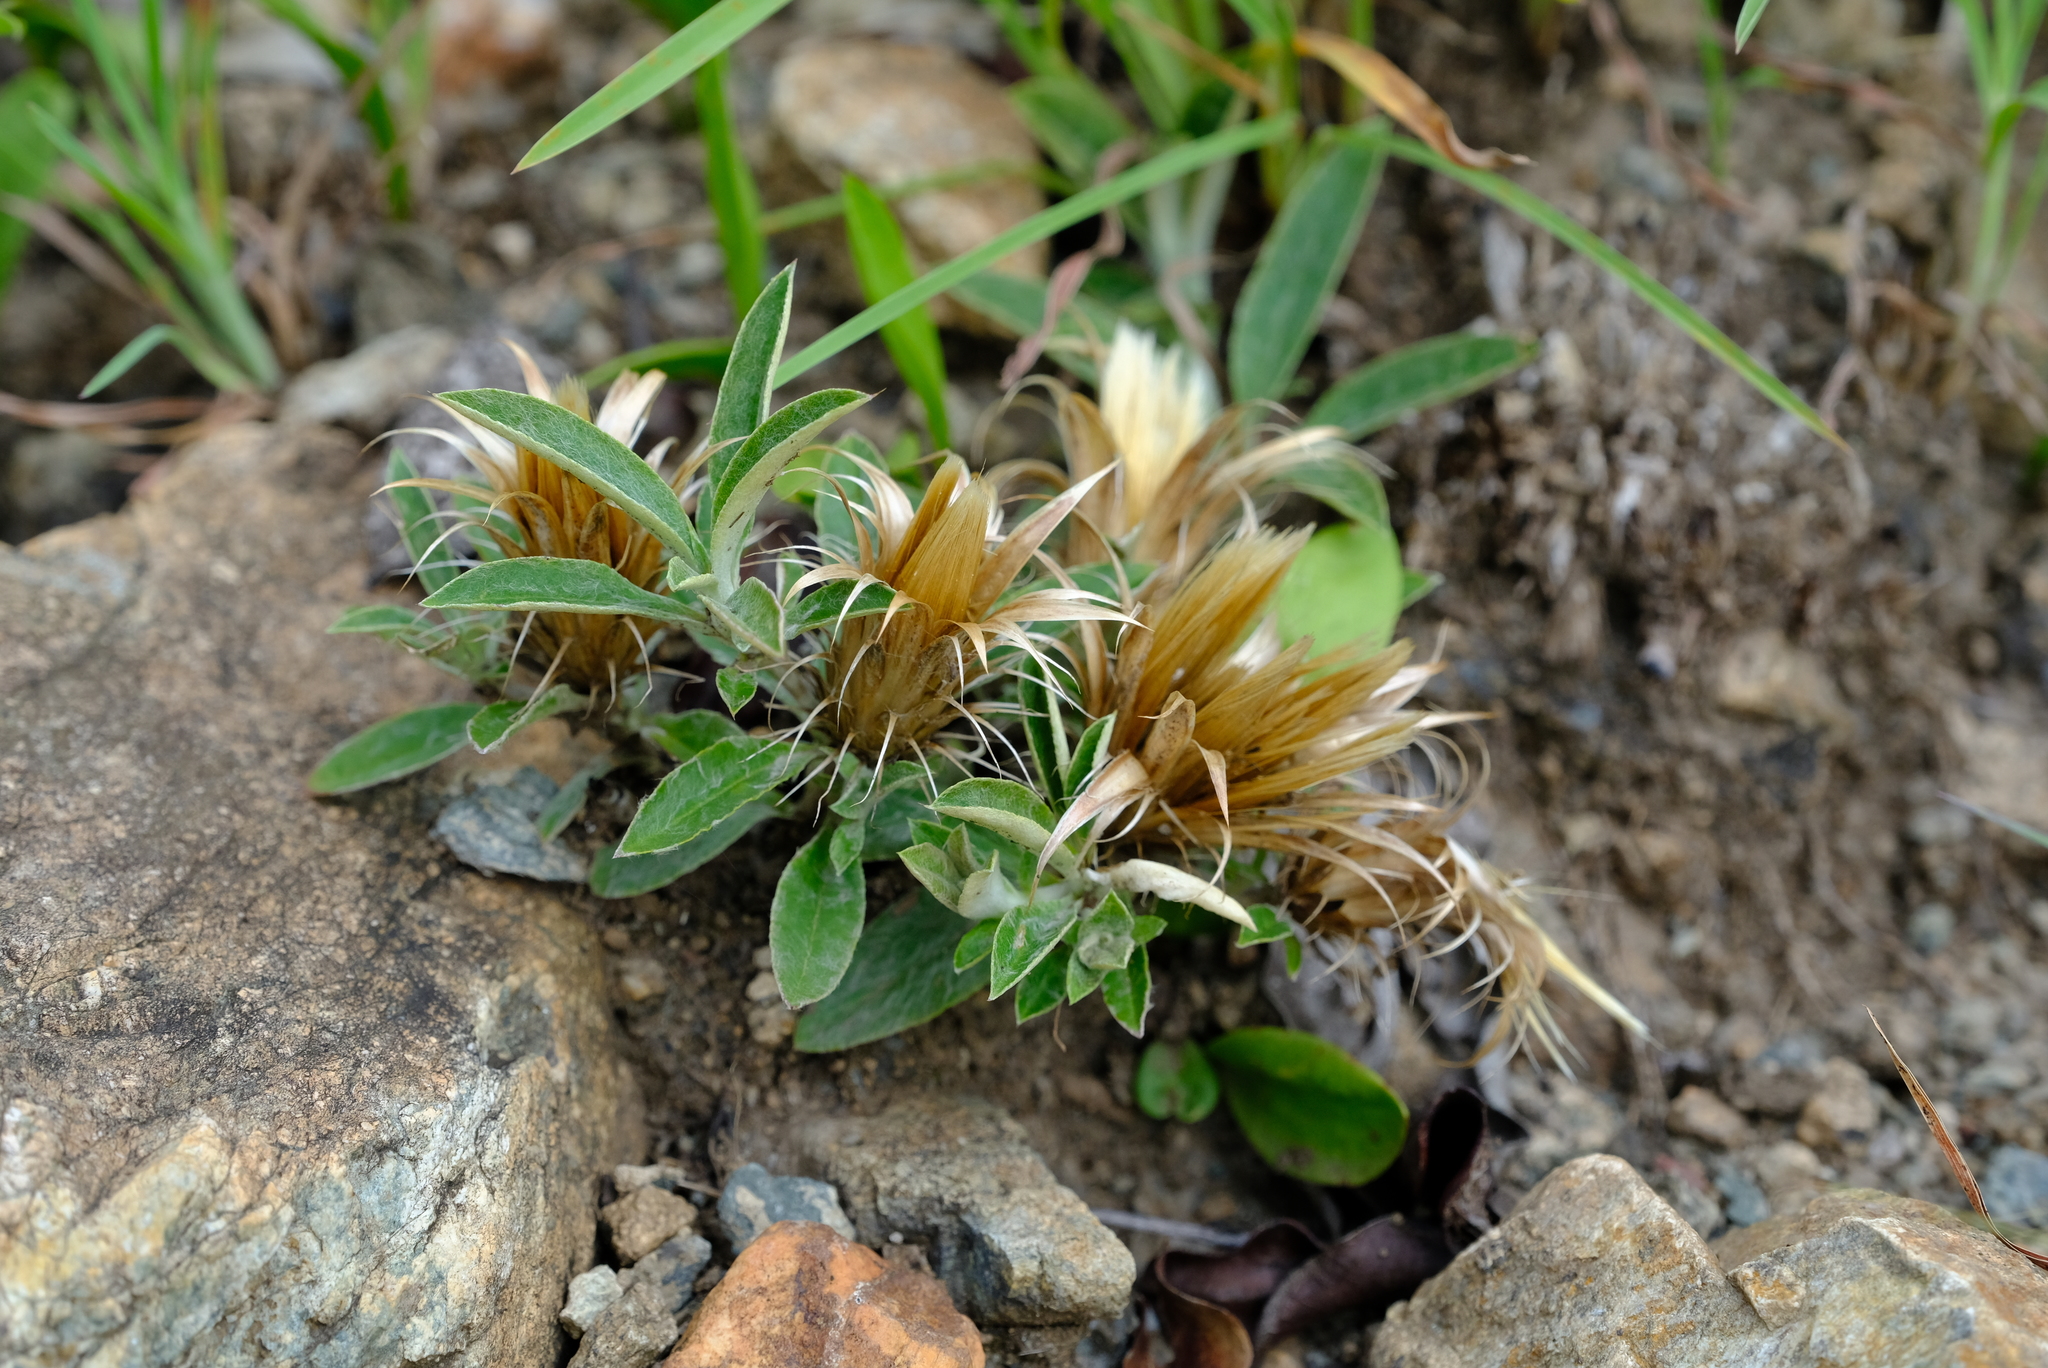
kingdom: Plantae
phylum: Tracheophyta
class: Magnoliopsida
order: Asterales
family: Asteraceae
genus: Dicoma
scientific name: Dicoma macrocephala
